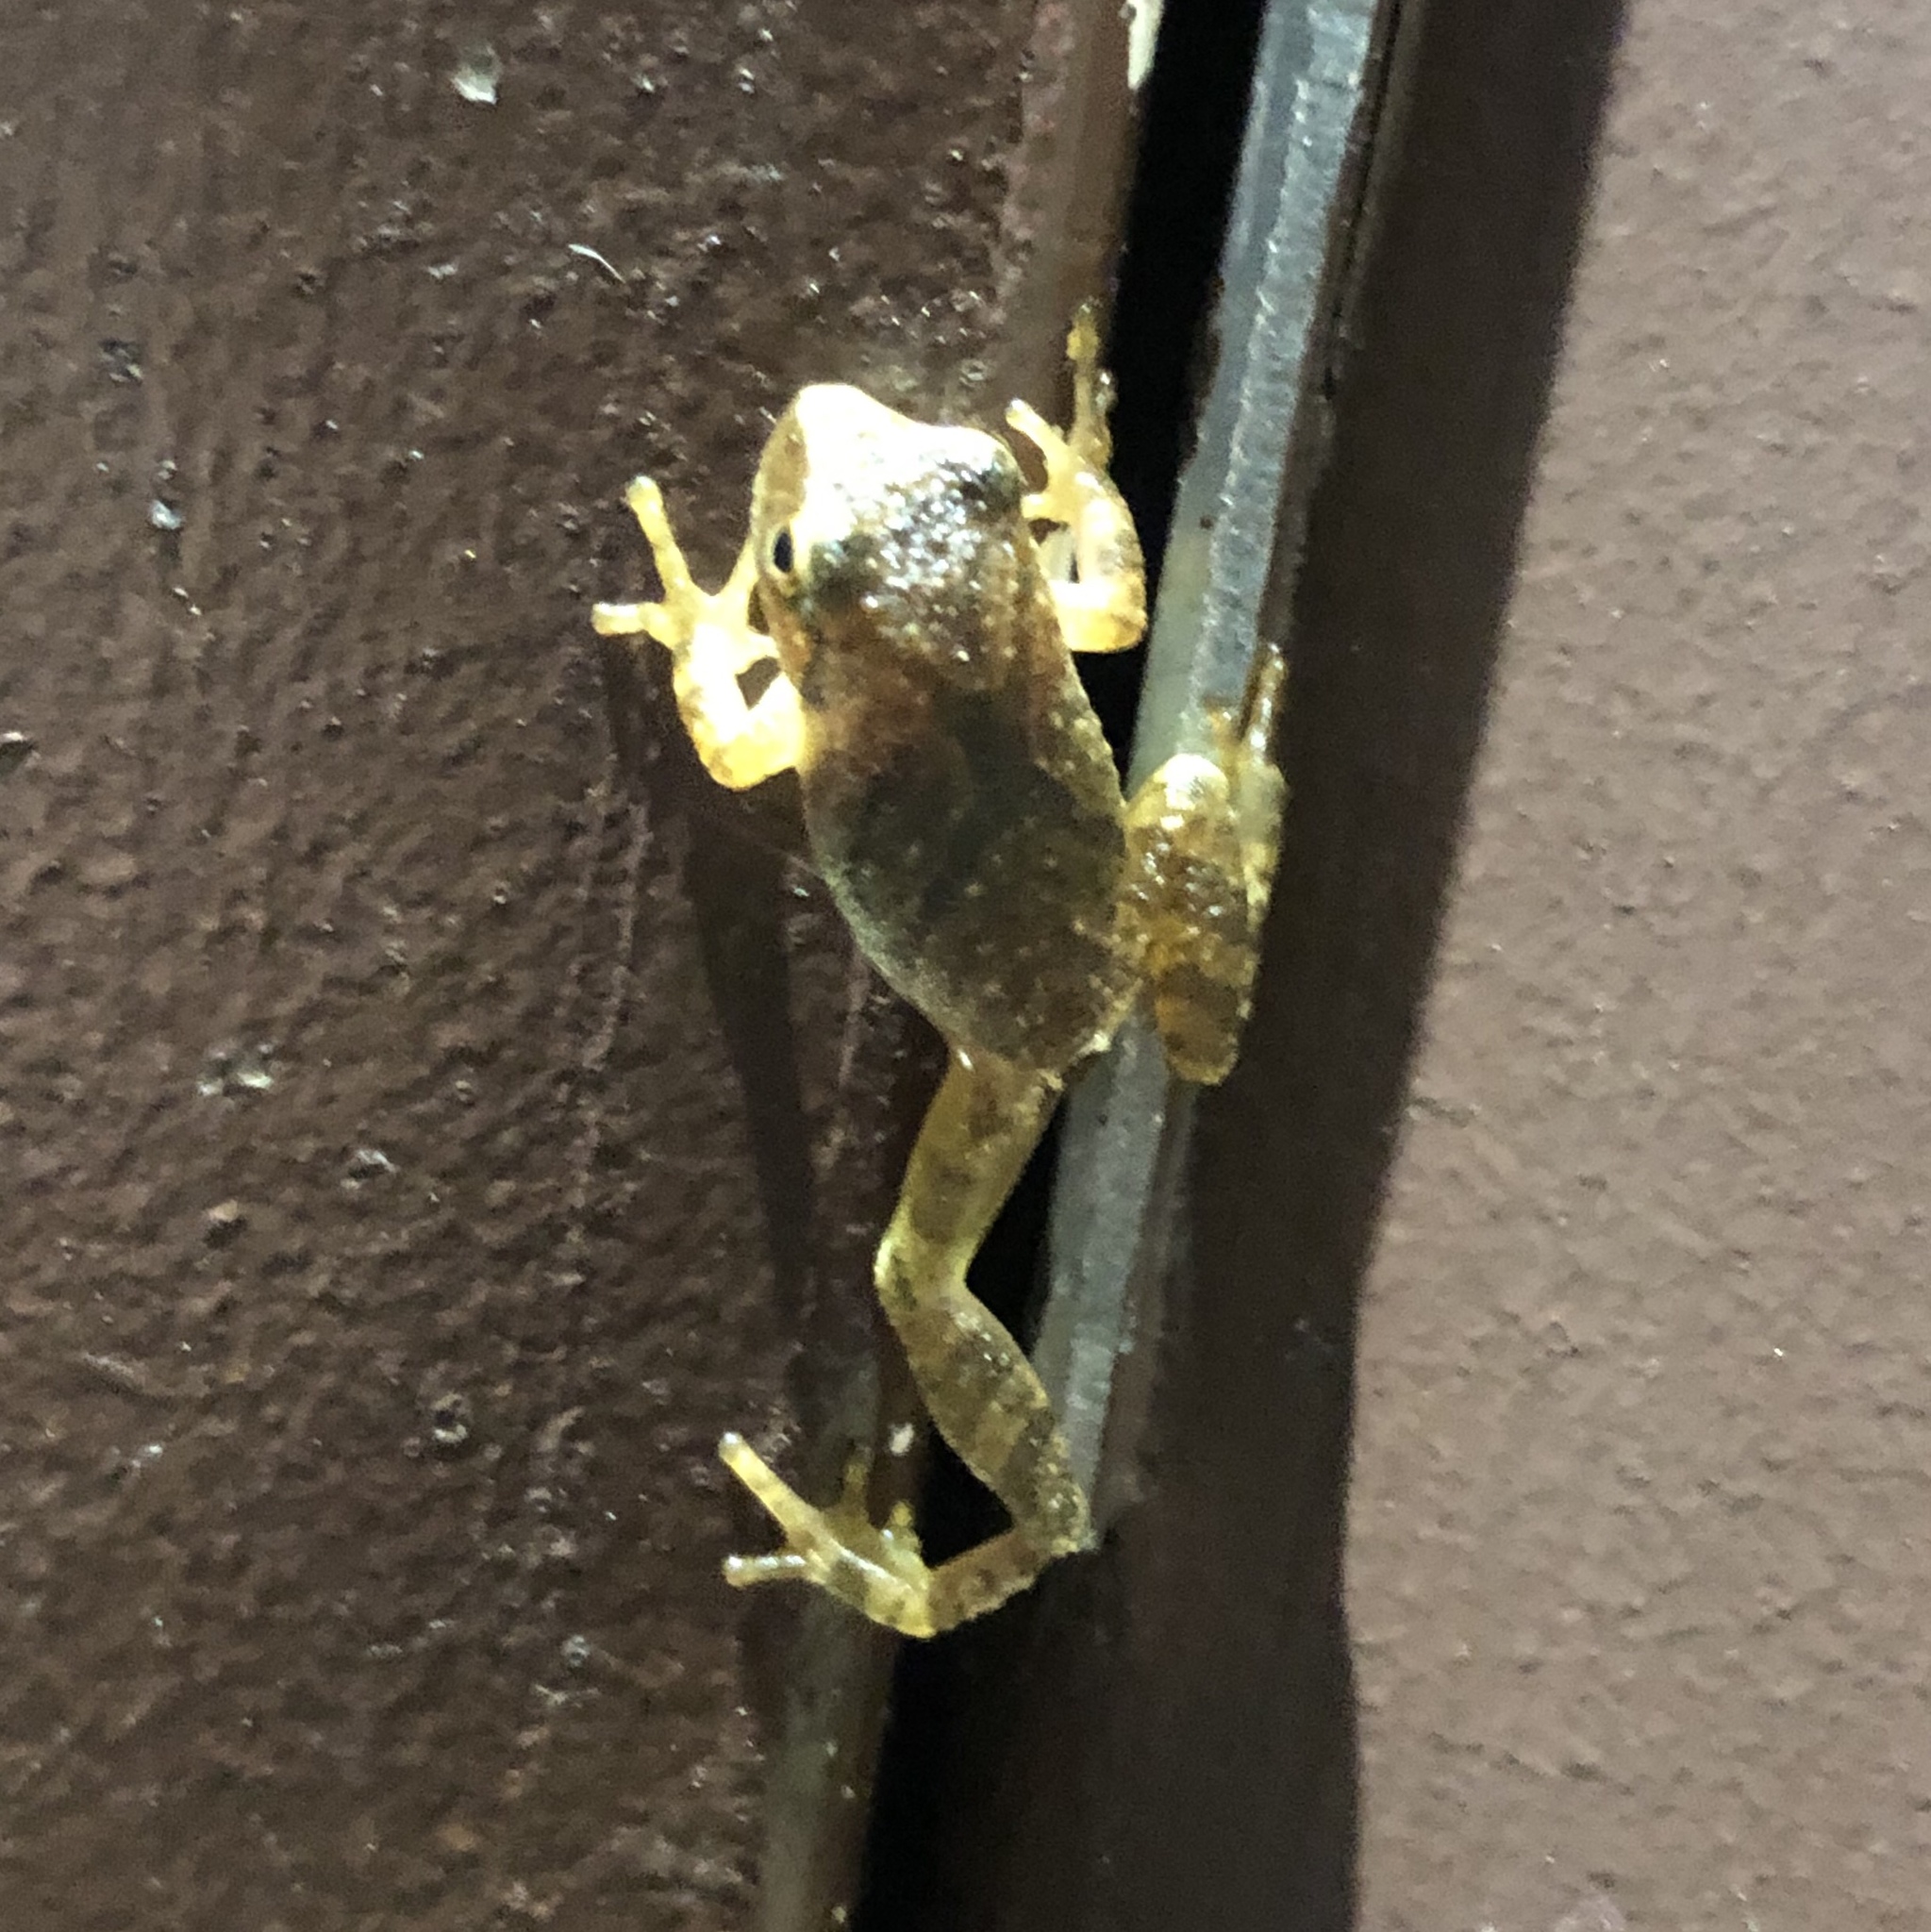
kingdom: Animalia
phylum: Chordata
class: Amphibia
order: Anura
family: Hylidae
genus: Pseudacris
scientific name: Pseudacris crucifer
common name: Spring peeper
